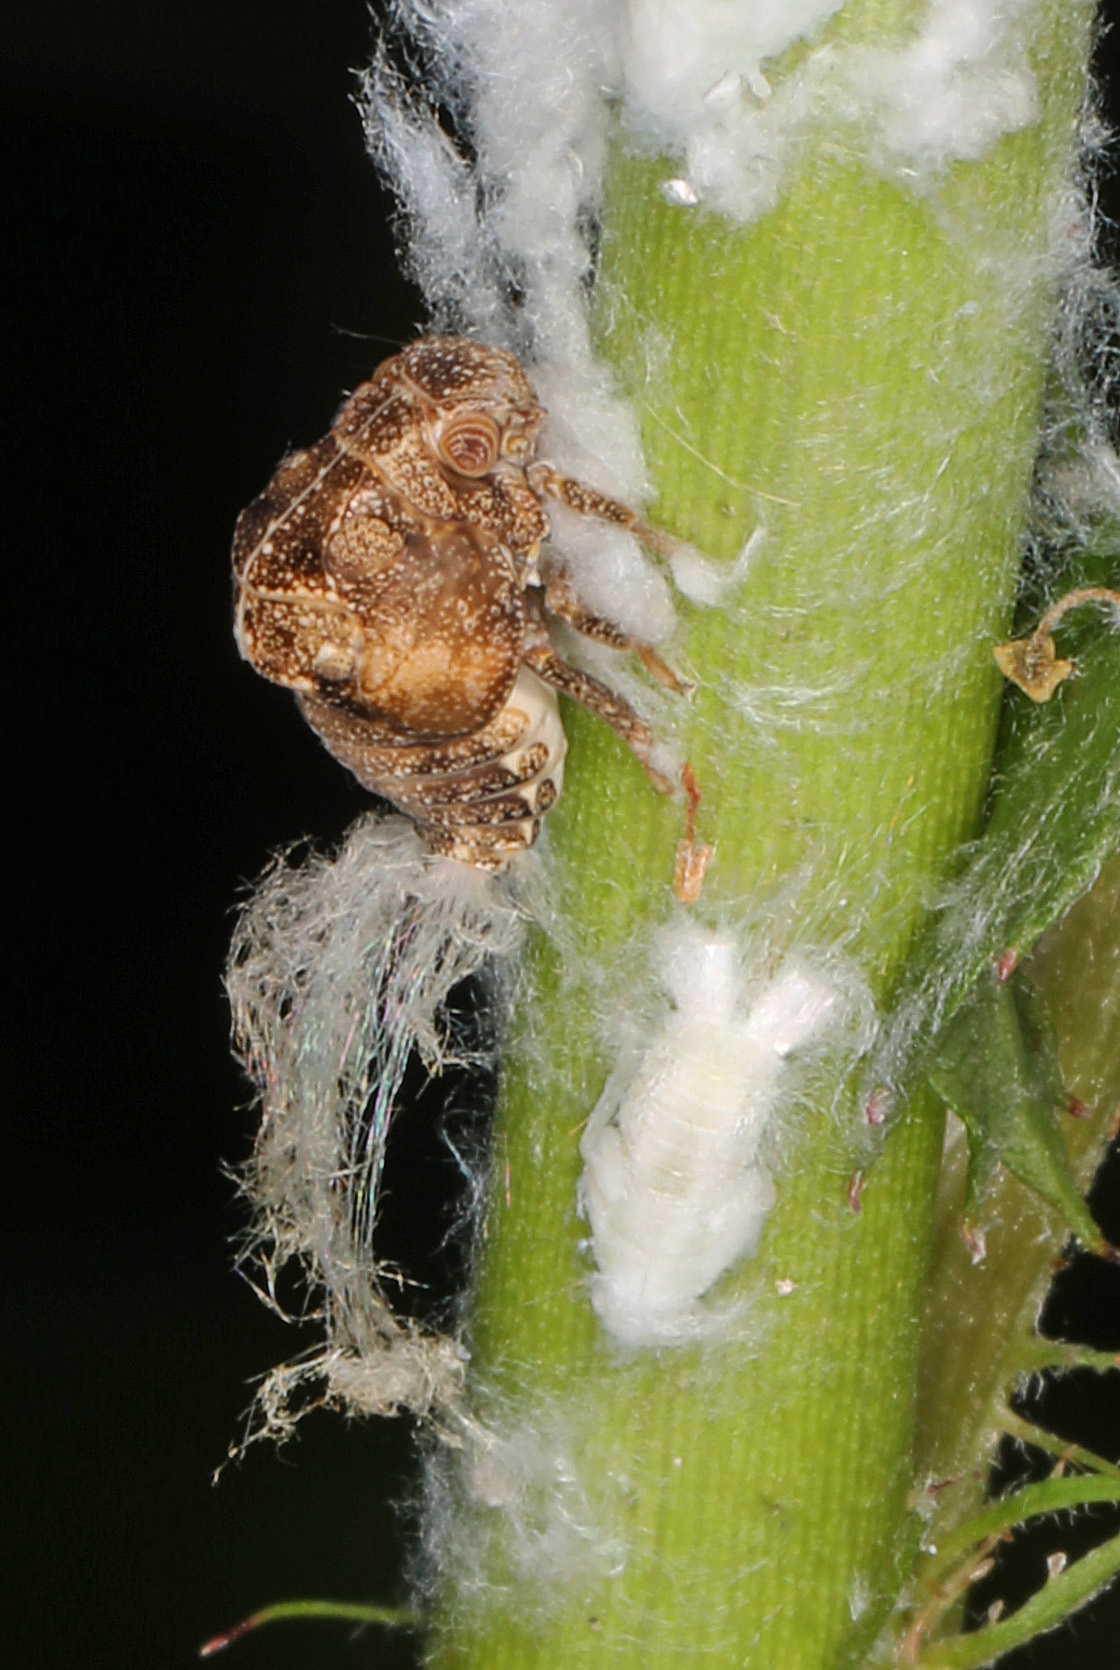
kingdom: Animalia
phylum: Arthropoda
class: Insecta
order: Hemiptera
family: Acanaloniidae
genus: Acanalonia
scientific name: Acanalonia bivittata
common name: Two-striped planthopper
